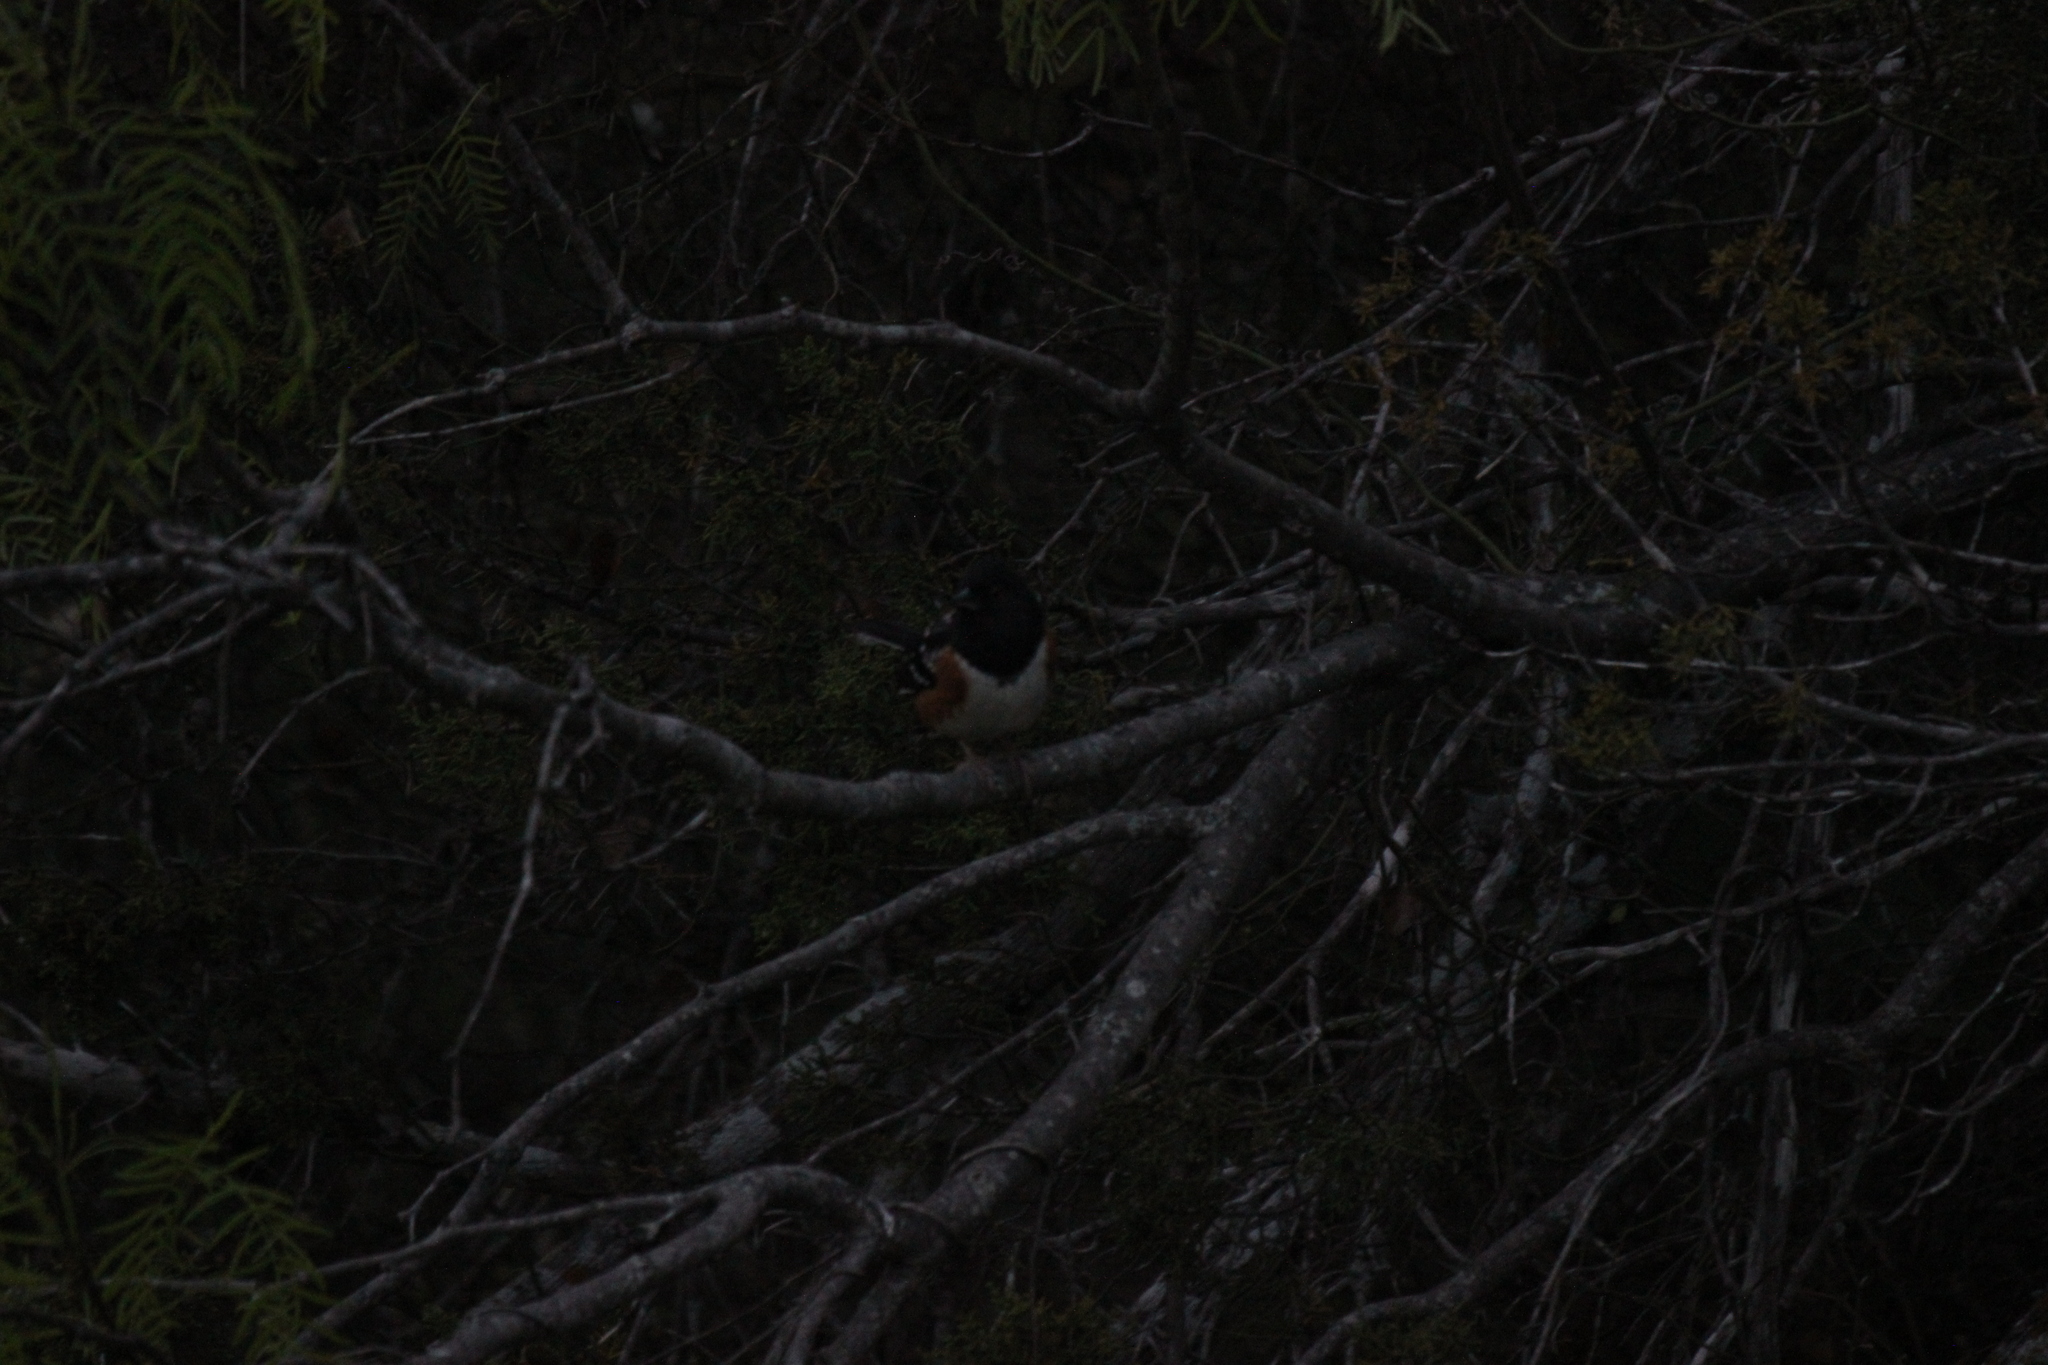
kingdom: Animalia
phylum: Chordata
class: Aves
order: Passeriformes
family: Passerellidae
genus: Pipilo
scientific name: Pipilo maculatus
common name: Spotted towhee
